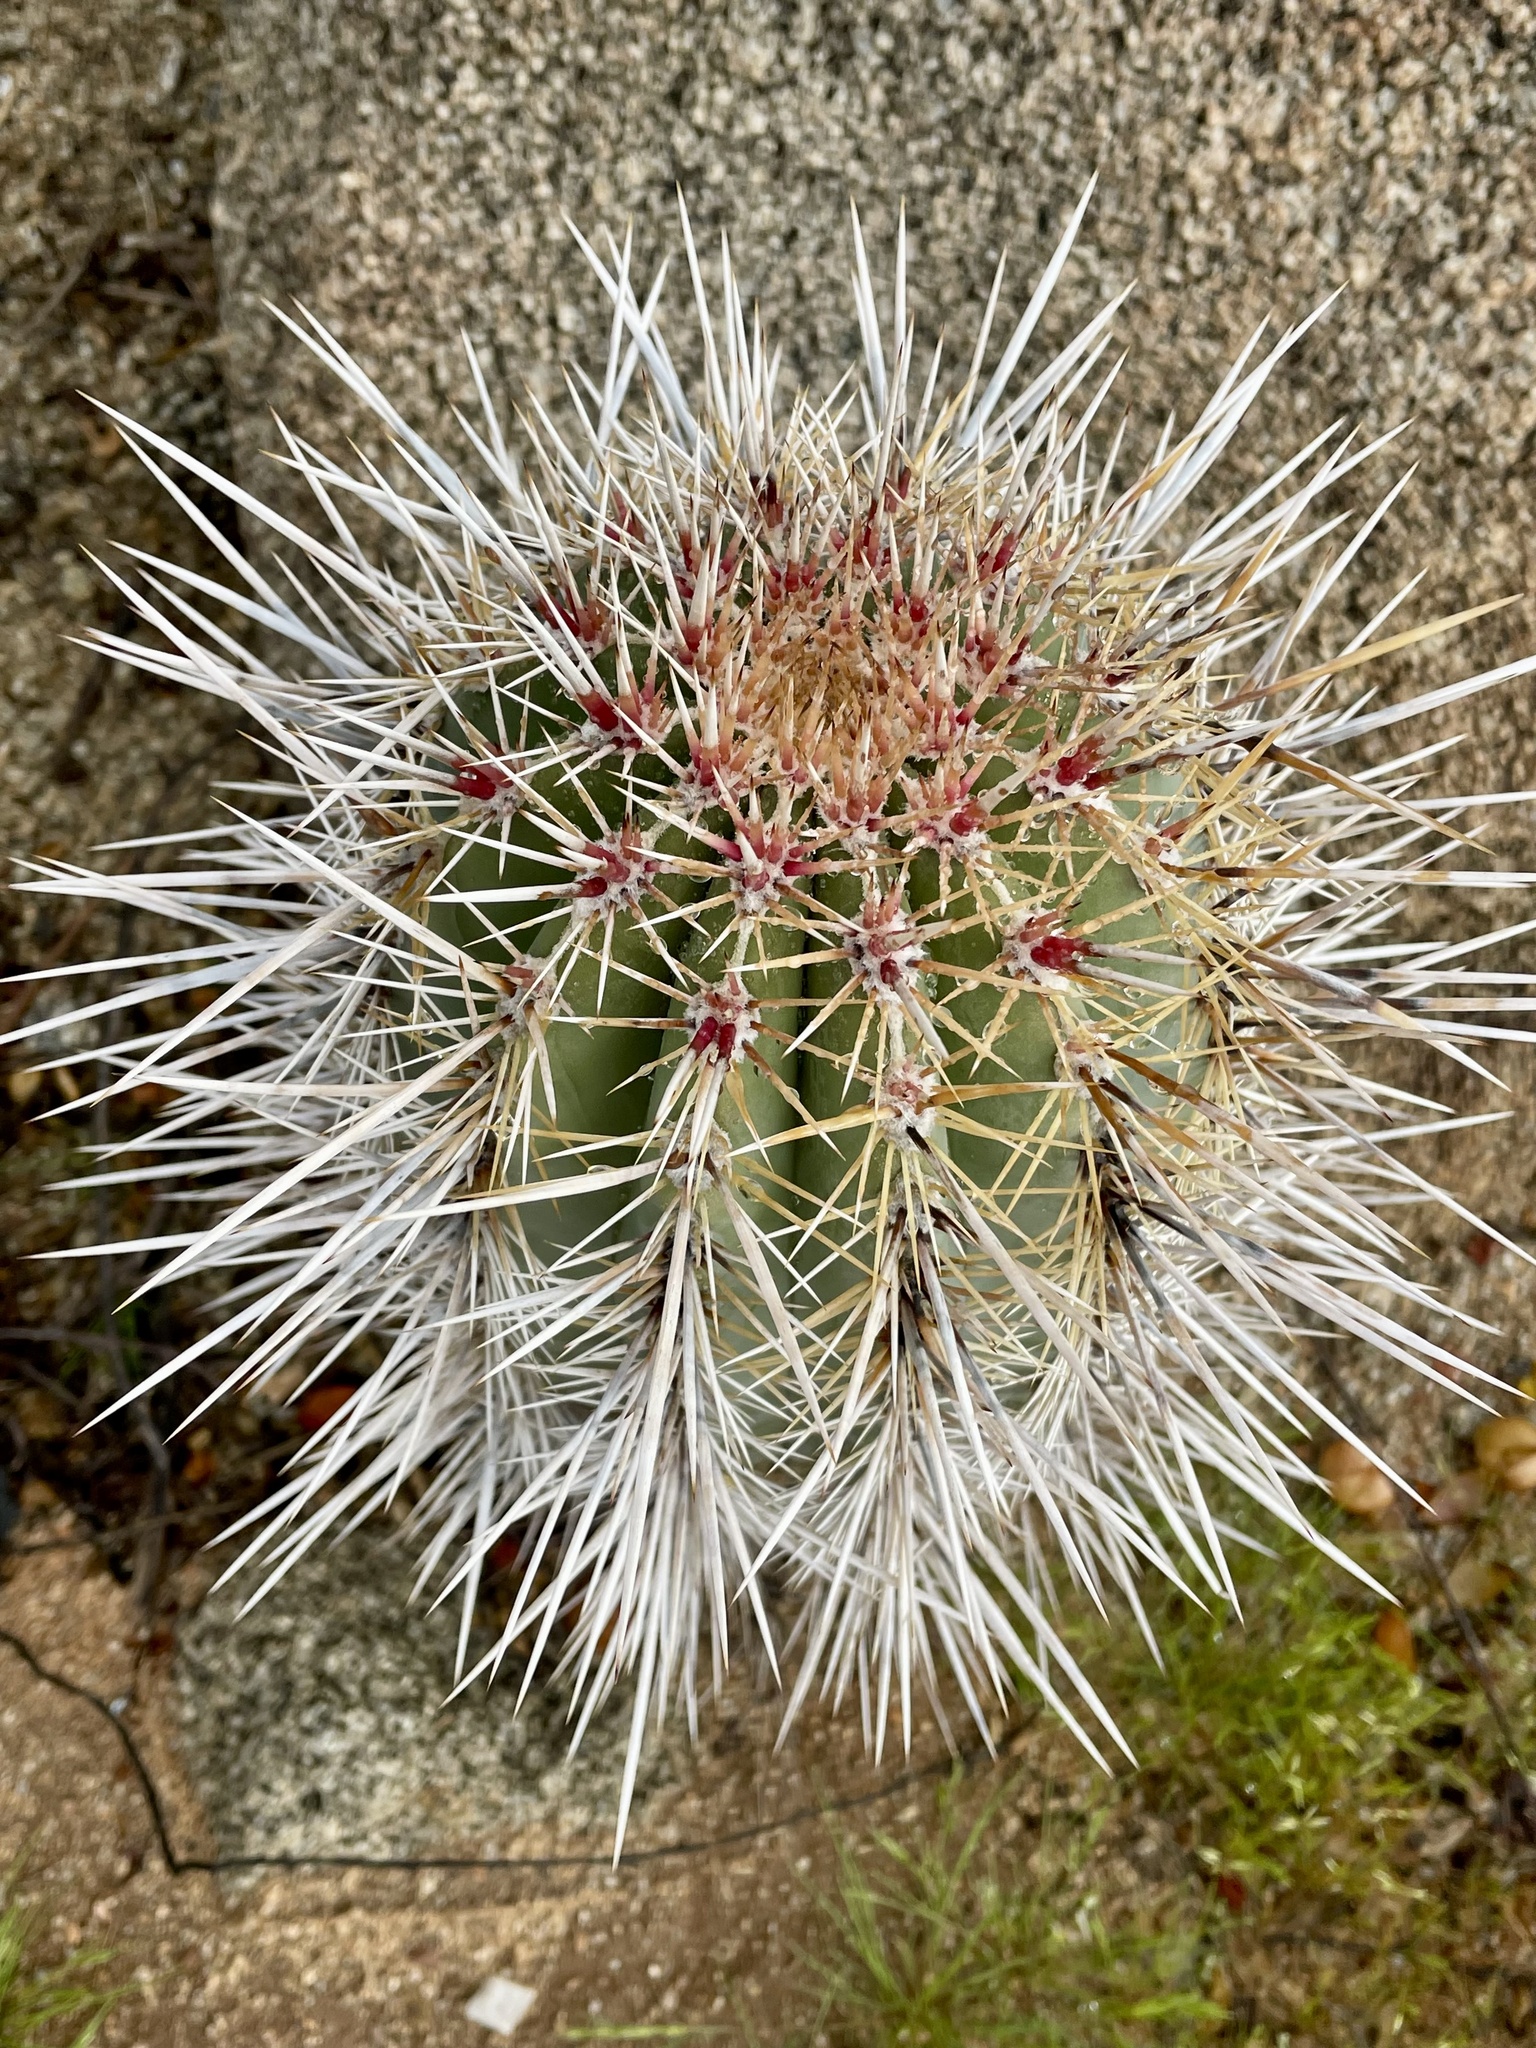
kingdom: Plantae
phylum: Tracheophyta
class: Magnoliopsida
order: Caryophyllales
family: Cactaceae
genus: Pachycereus
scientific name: Pachycereus pringlei
